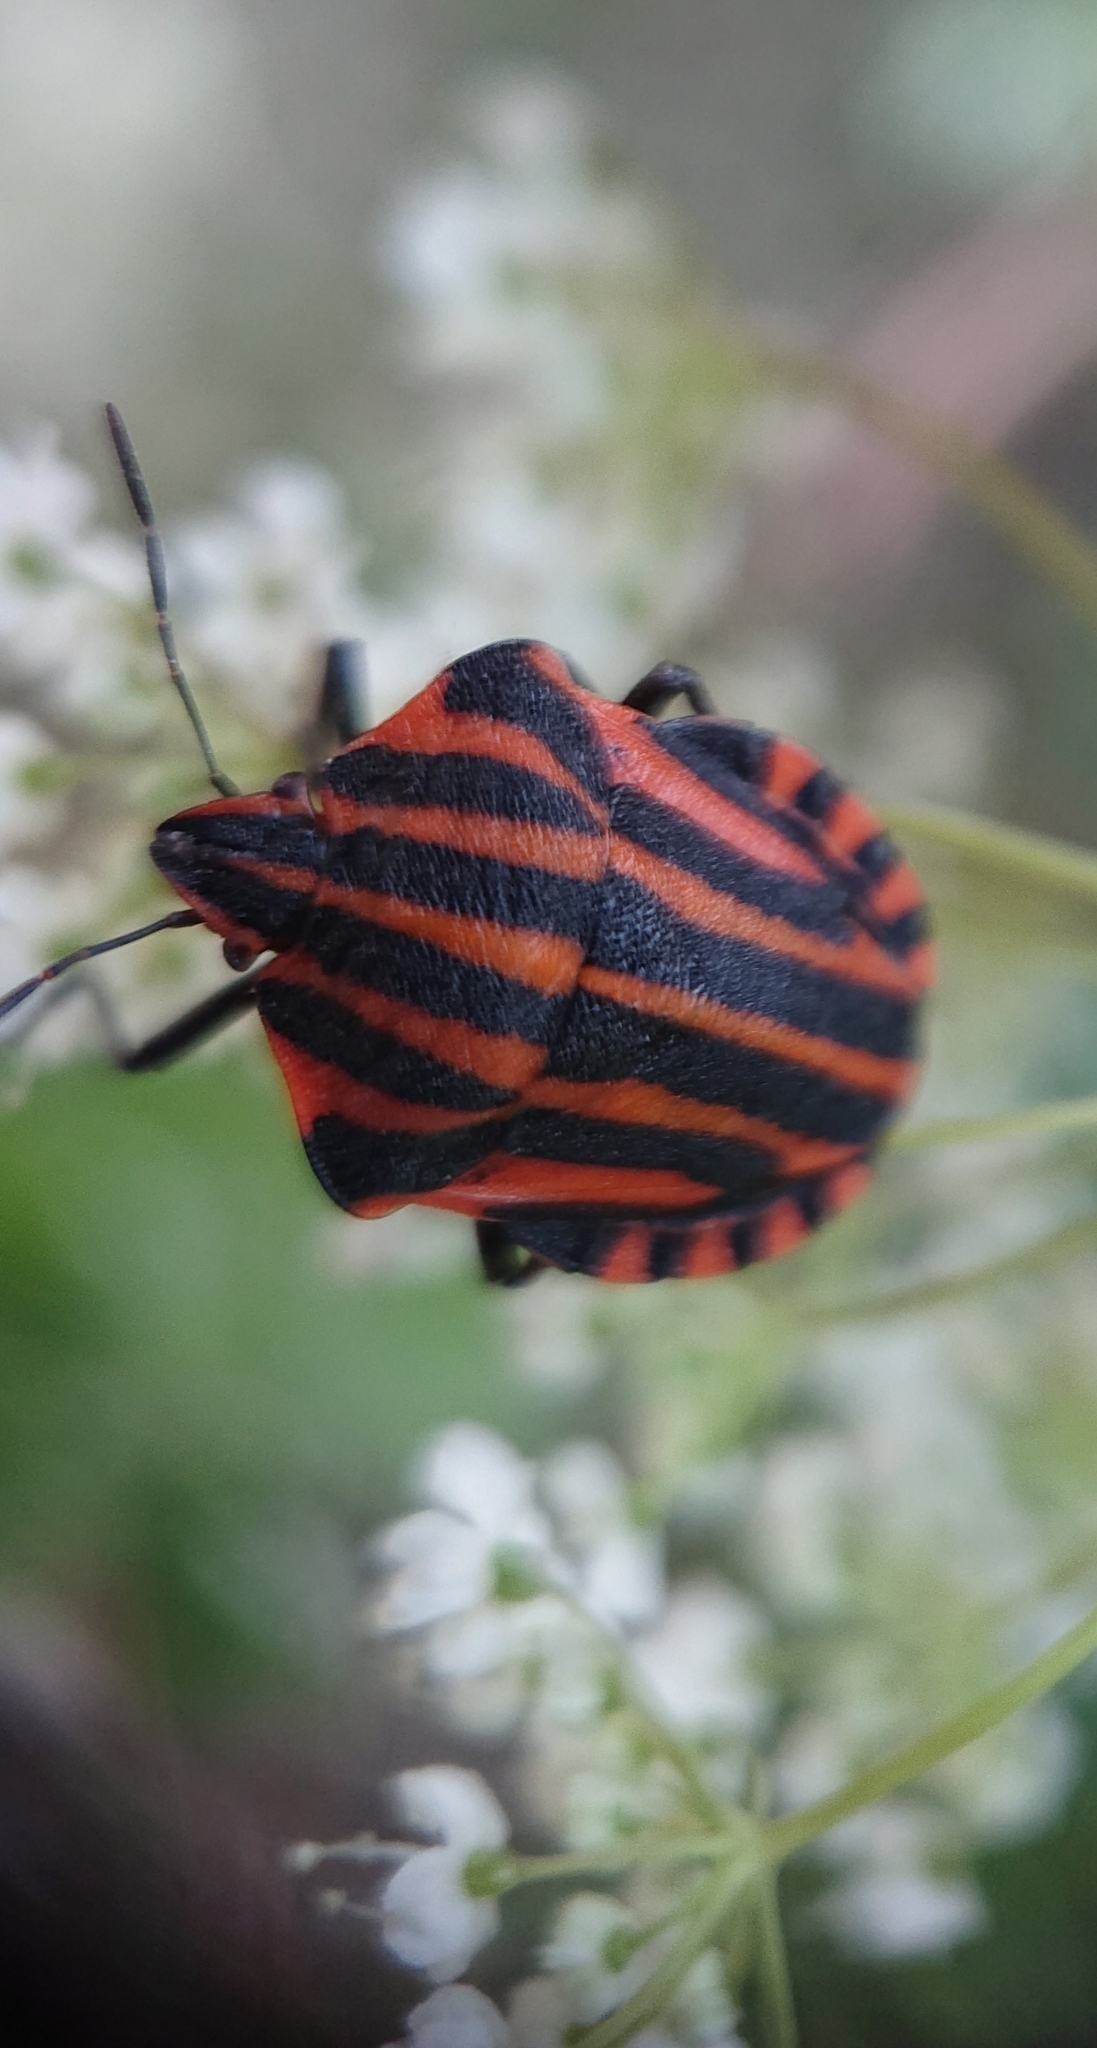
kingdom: Animalia
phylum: Arthropoda
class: Insecta
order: Hemiptera
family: Pentatomidae
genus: Graphosoma
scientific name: Graphosoma italicum
